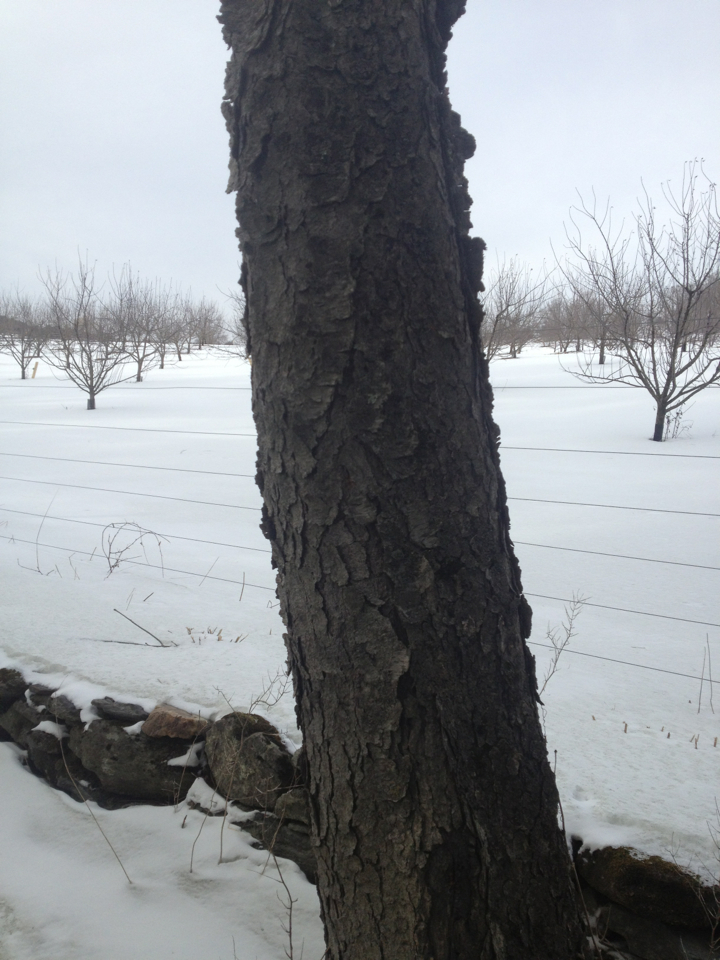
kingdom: Plantae
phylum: Tracheophyta
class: Magnoliopsida
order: Rosales
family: Rosaceae
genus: Prunus
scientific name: Prunus serotina
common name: Black cherry
